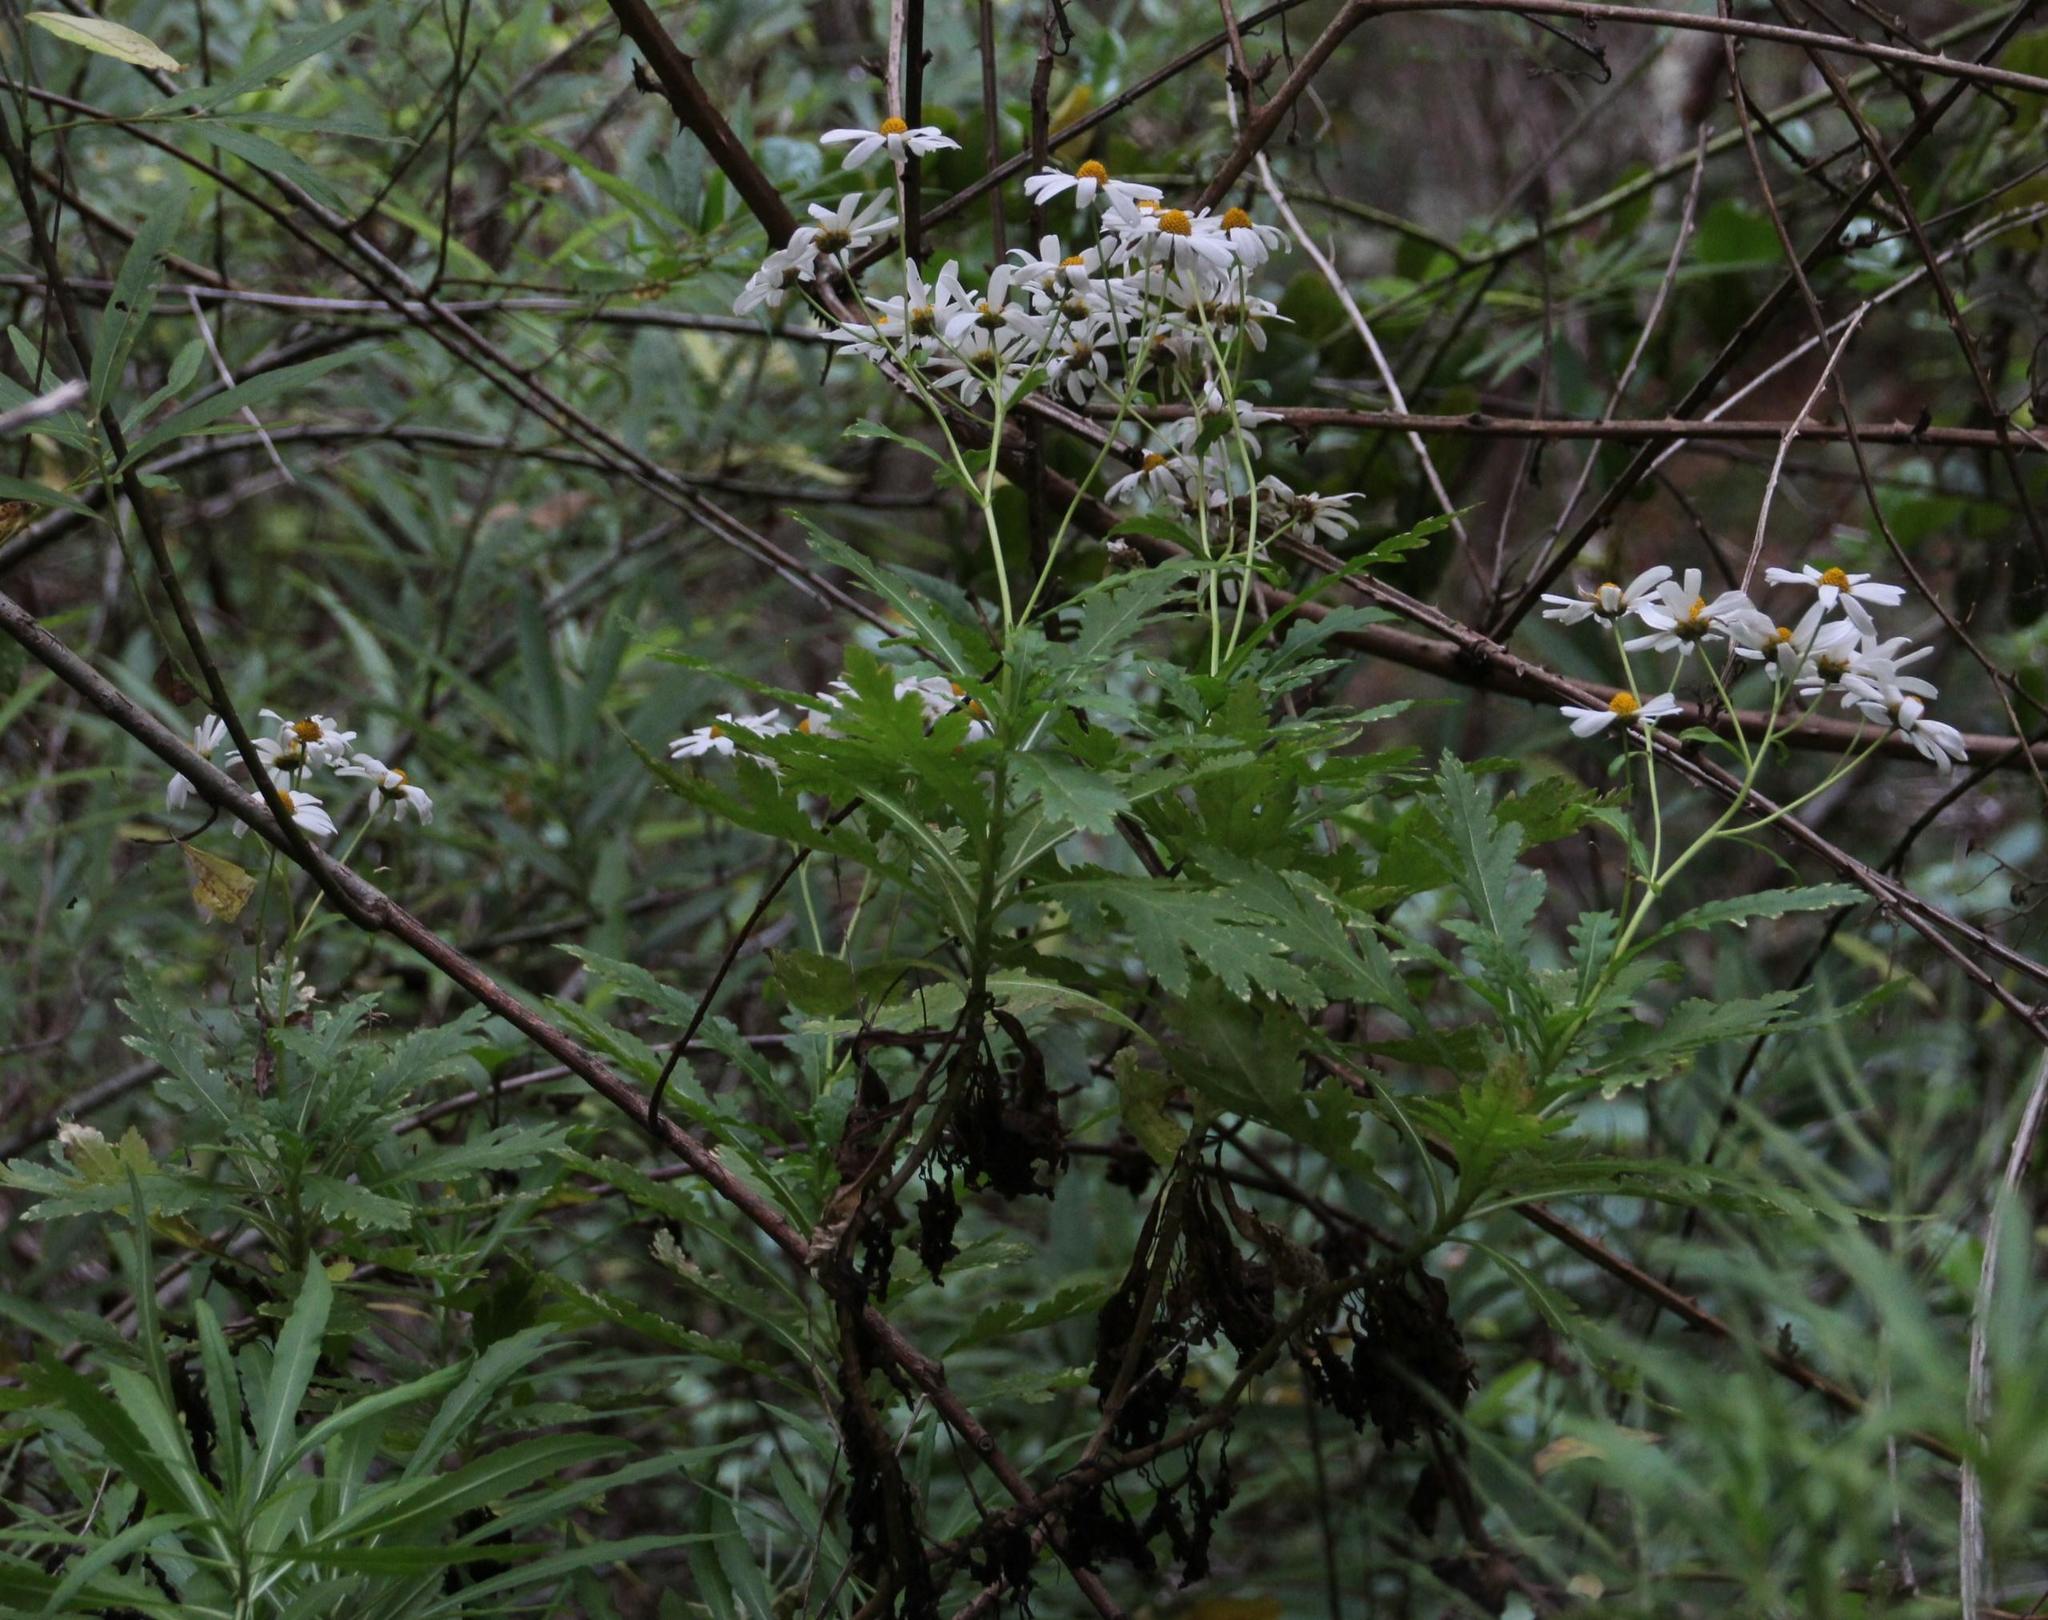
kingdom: Plantae
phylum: Tracheophyta
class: Magnoliopsida
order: Asterales
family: Asteraceae
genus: Argyranthemum
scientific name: Argyranthemum pinnatifidum
